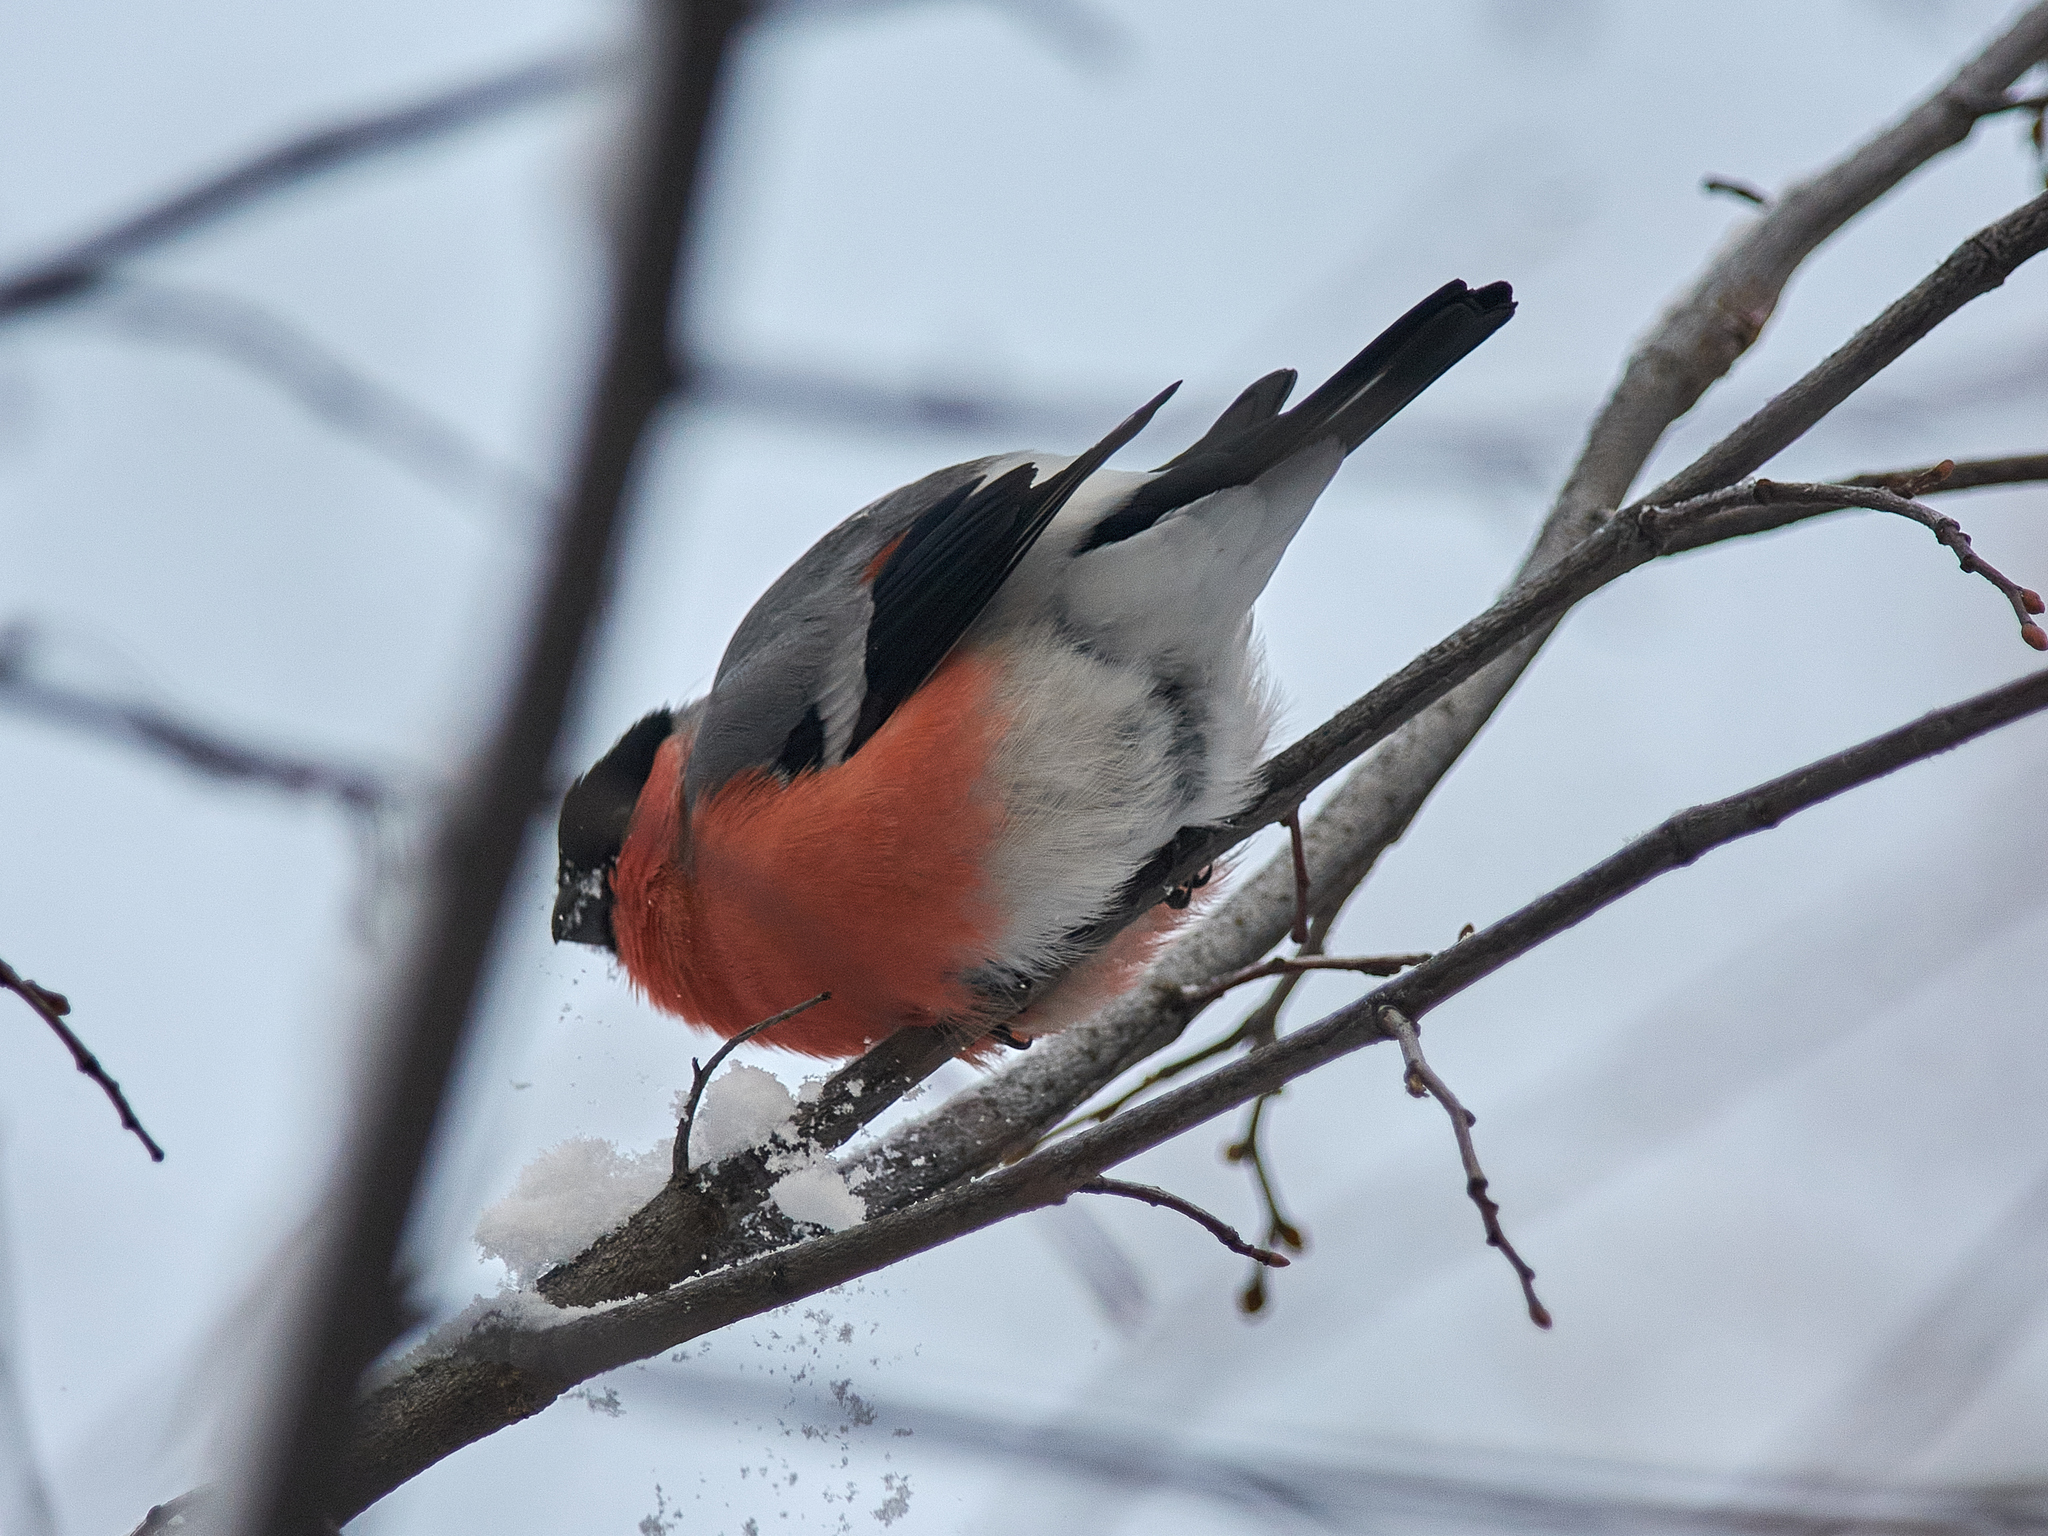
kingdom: Animalia
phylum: Chordata
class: Aves
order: Passeriformes
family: Fringillidae
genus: Pyrrhula
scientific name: Pyrrhula pyrrhula
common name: Eurasian bullfinch
